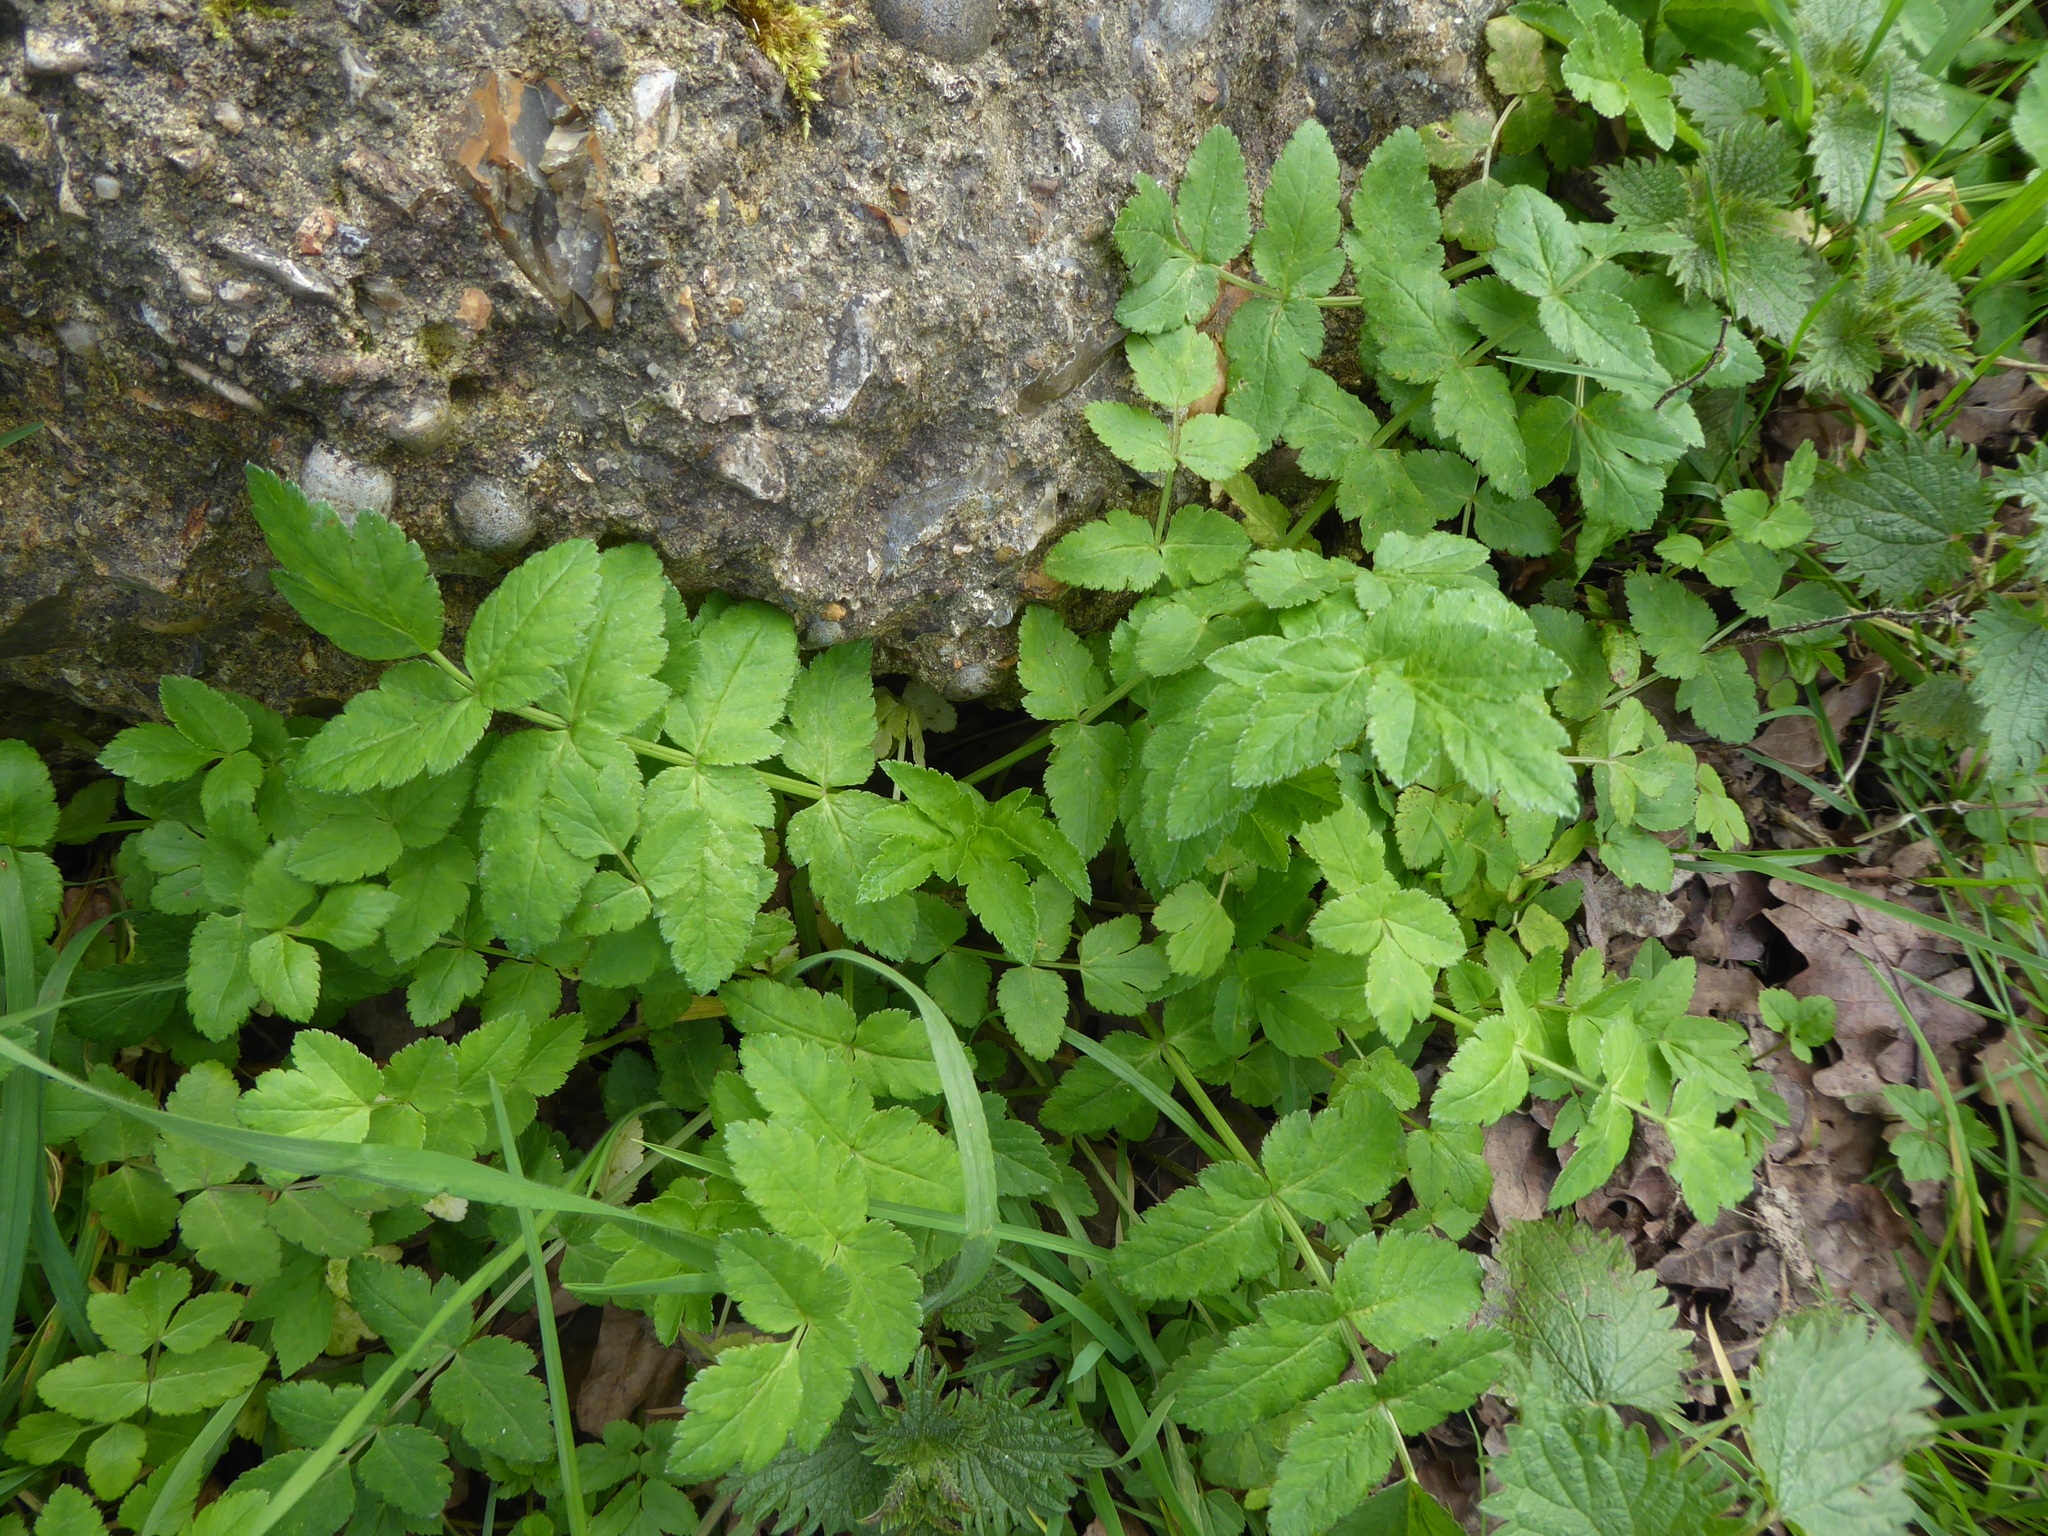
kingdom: Plantae
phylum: Tracheophyta
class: Magnoliopsida
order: Apiales
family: Apiaceae
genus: Sison
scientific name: Sison amomum
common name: Stone-parsley
